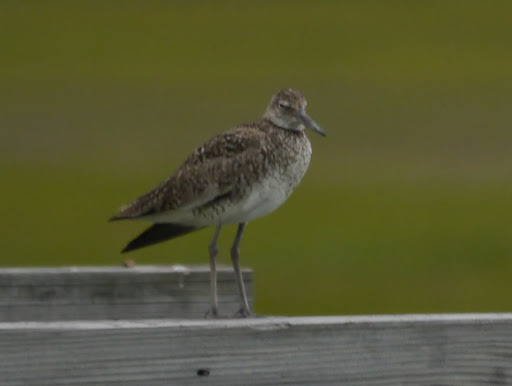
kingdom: Animalia
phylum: Chordata
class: Aves
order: Charadriiformes
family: Scolopacidae
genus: Tringa
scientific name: Tringa semipalmata
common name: Willet
